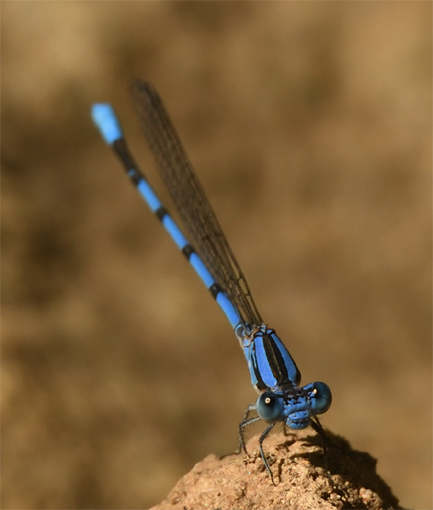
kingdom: Animalia
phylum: Arthropoda
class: Insecta
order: Odonata
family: Coenagrionidae
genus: Argia
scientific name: Argia agrioides
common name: California dancer
